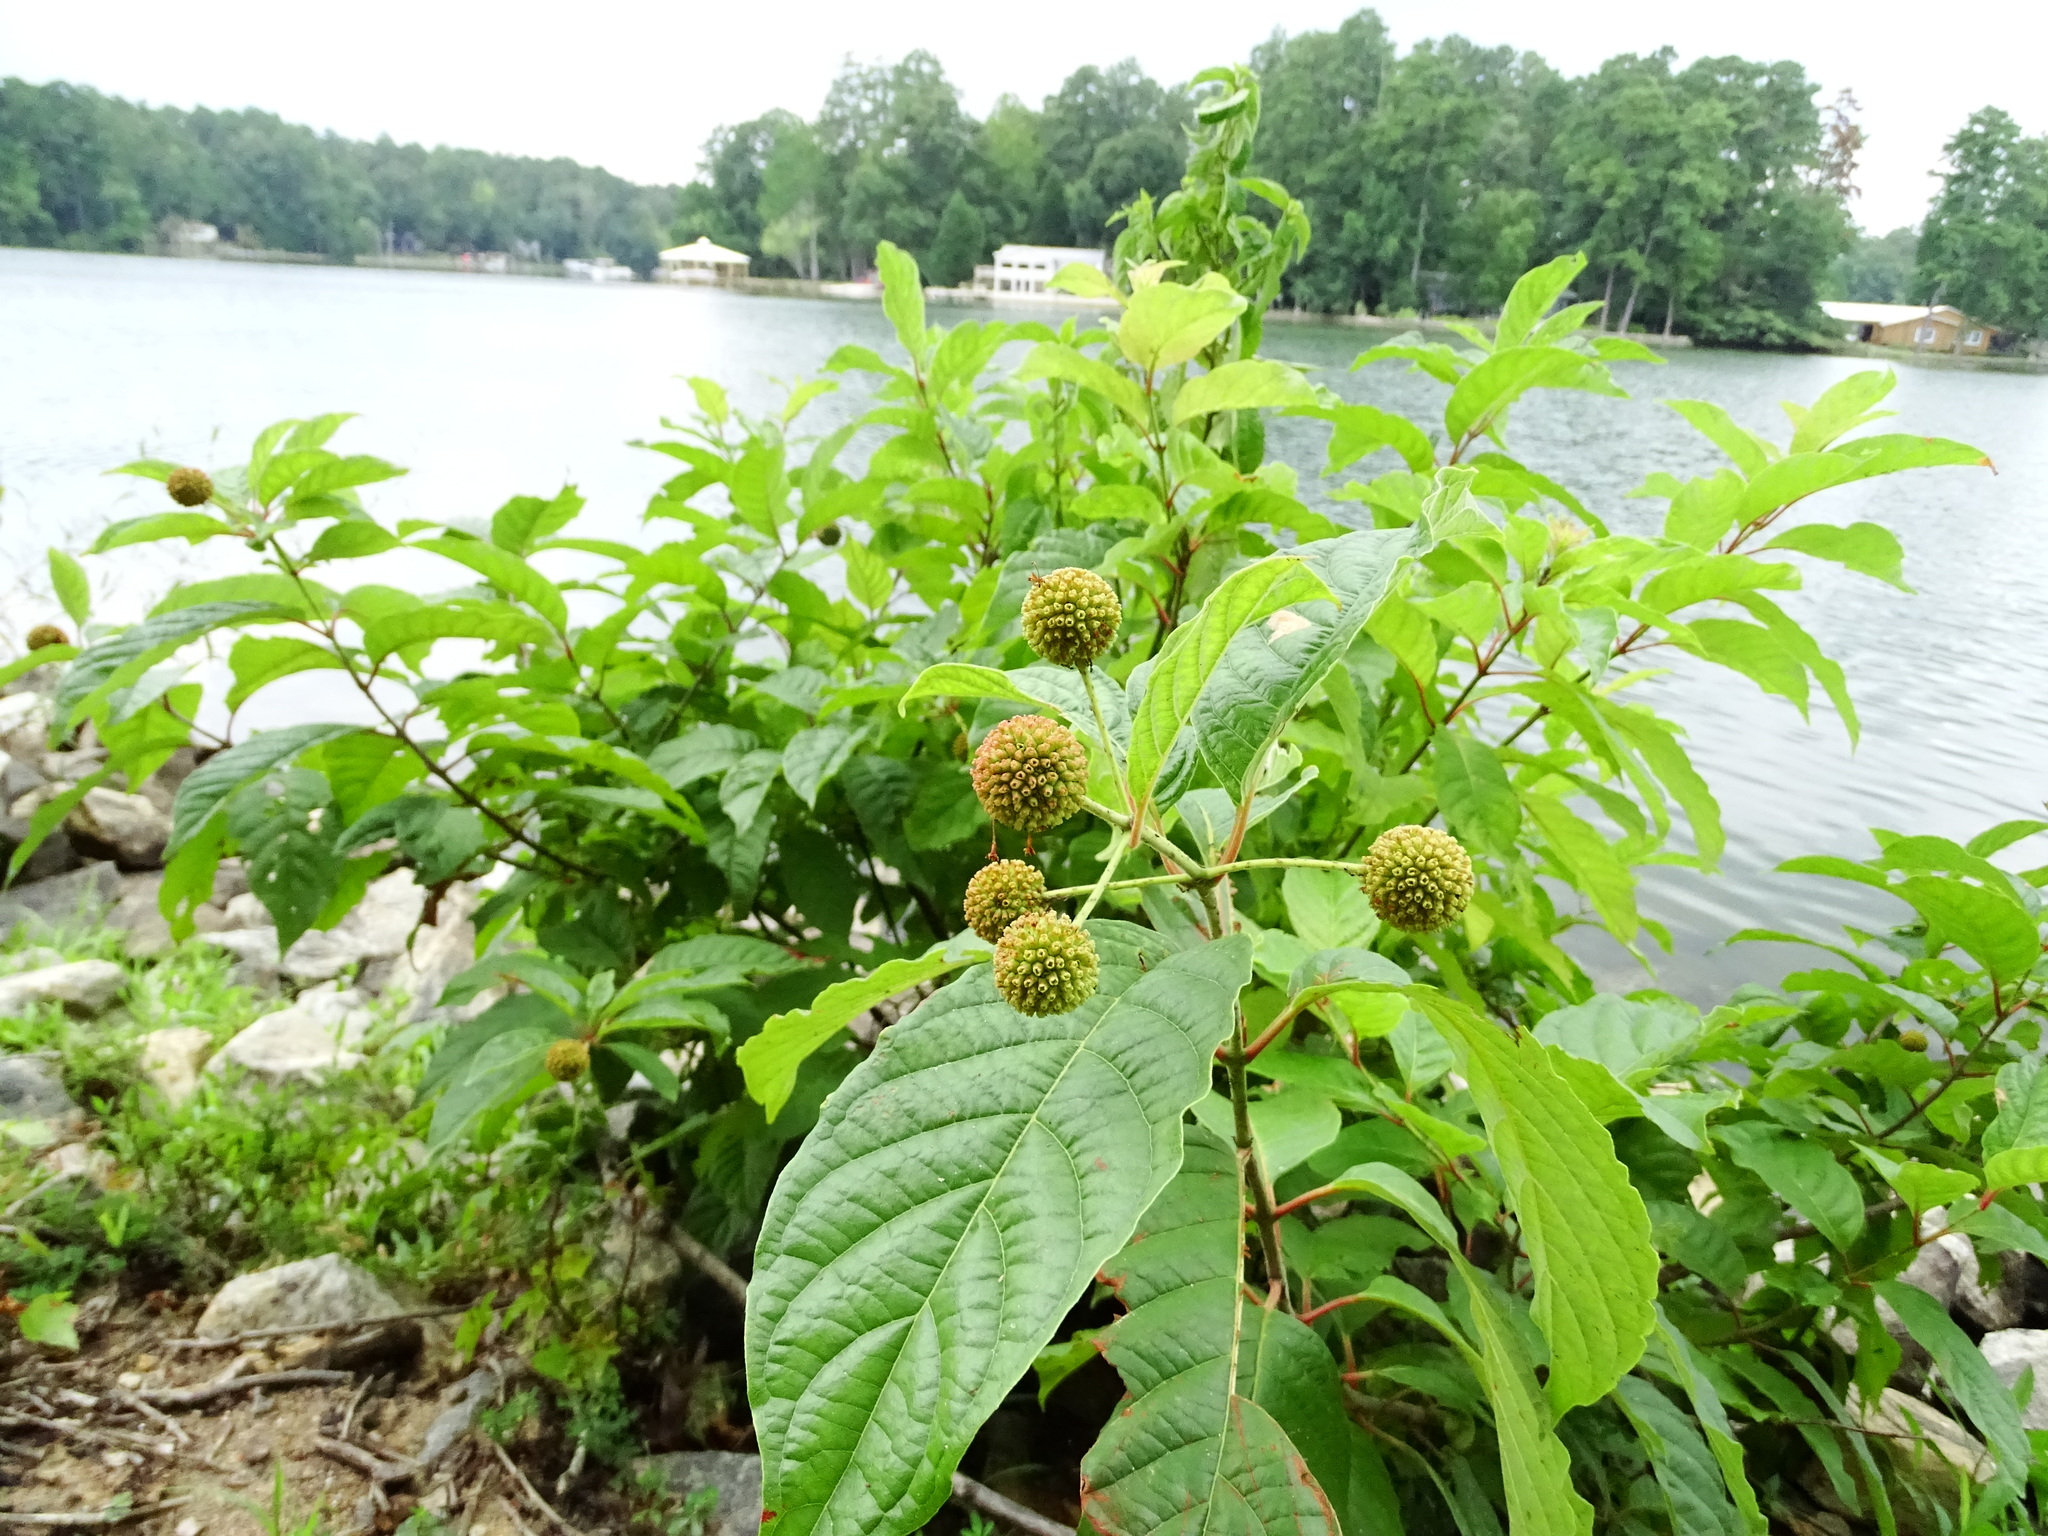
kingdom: Plantae
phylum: Tracheophyta
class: Magnoliopsida
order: Gentianales
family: Rubiaceae
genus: Cephalanthus
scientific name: Cephalanthus occidentalis
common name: Button-willow
